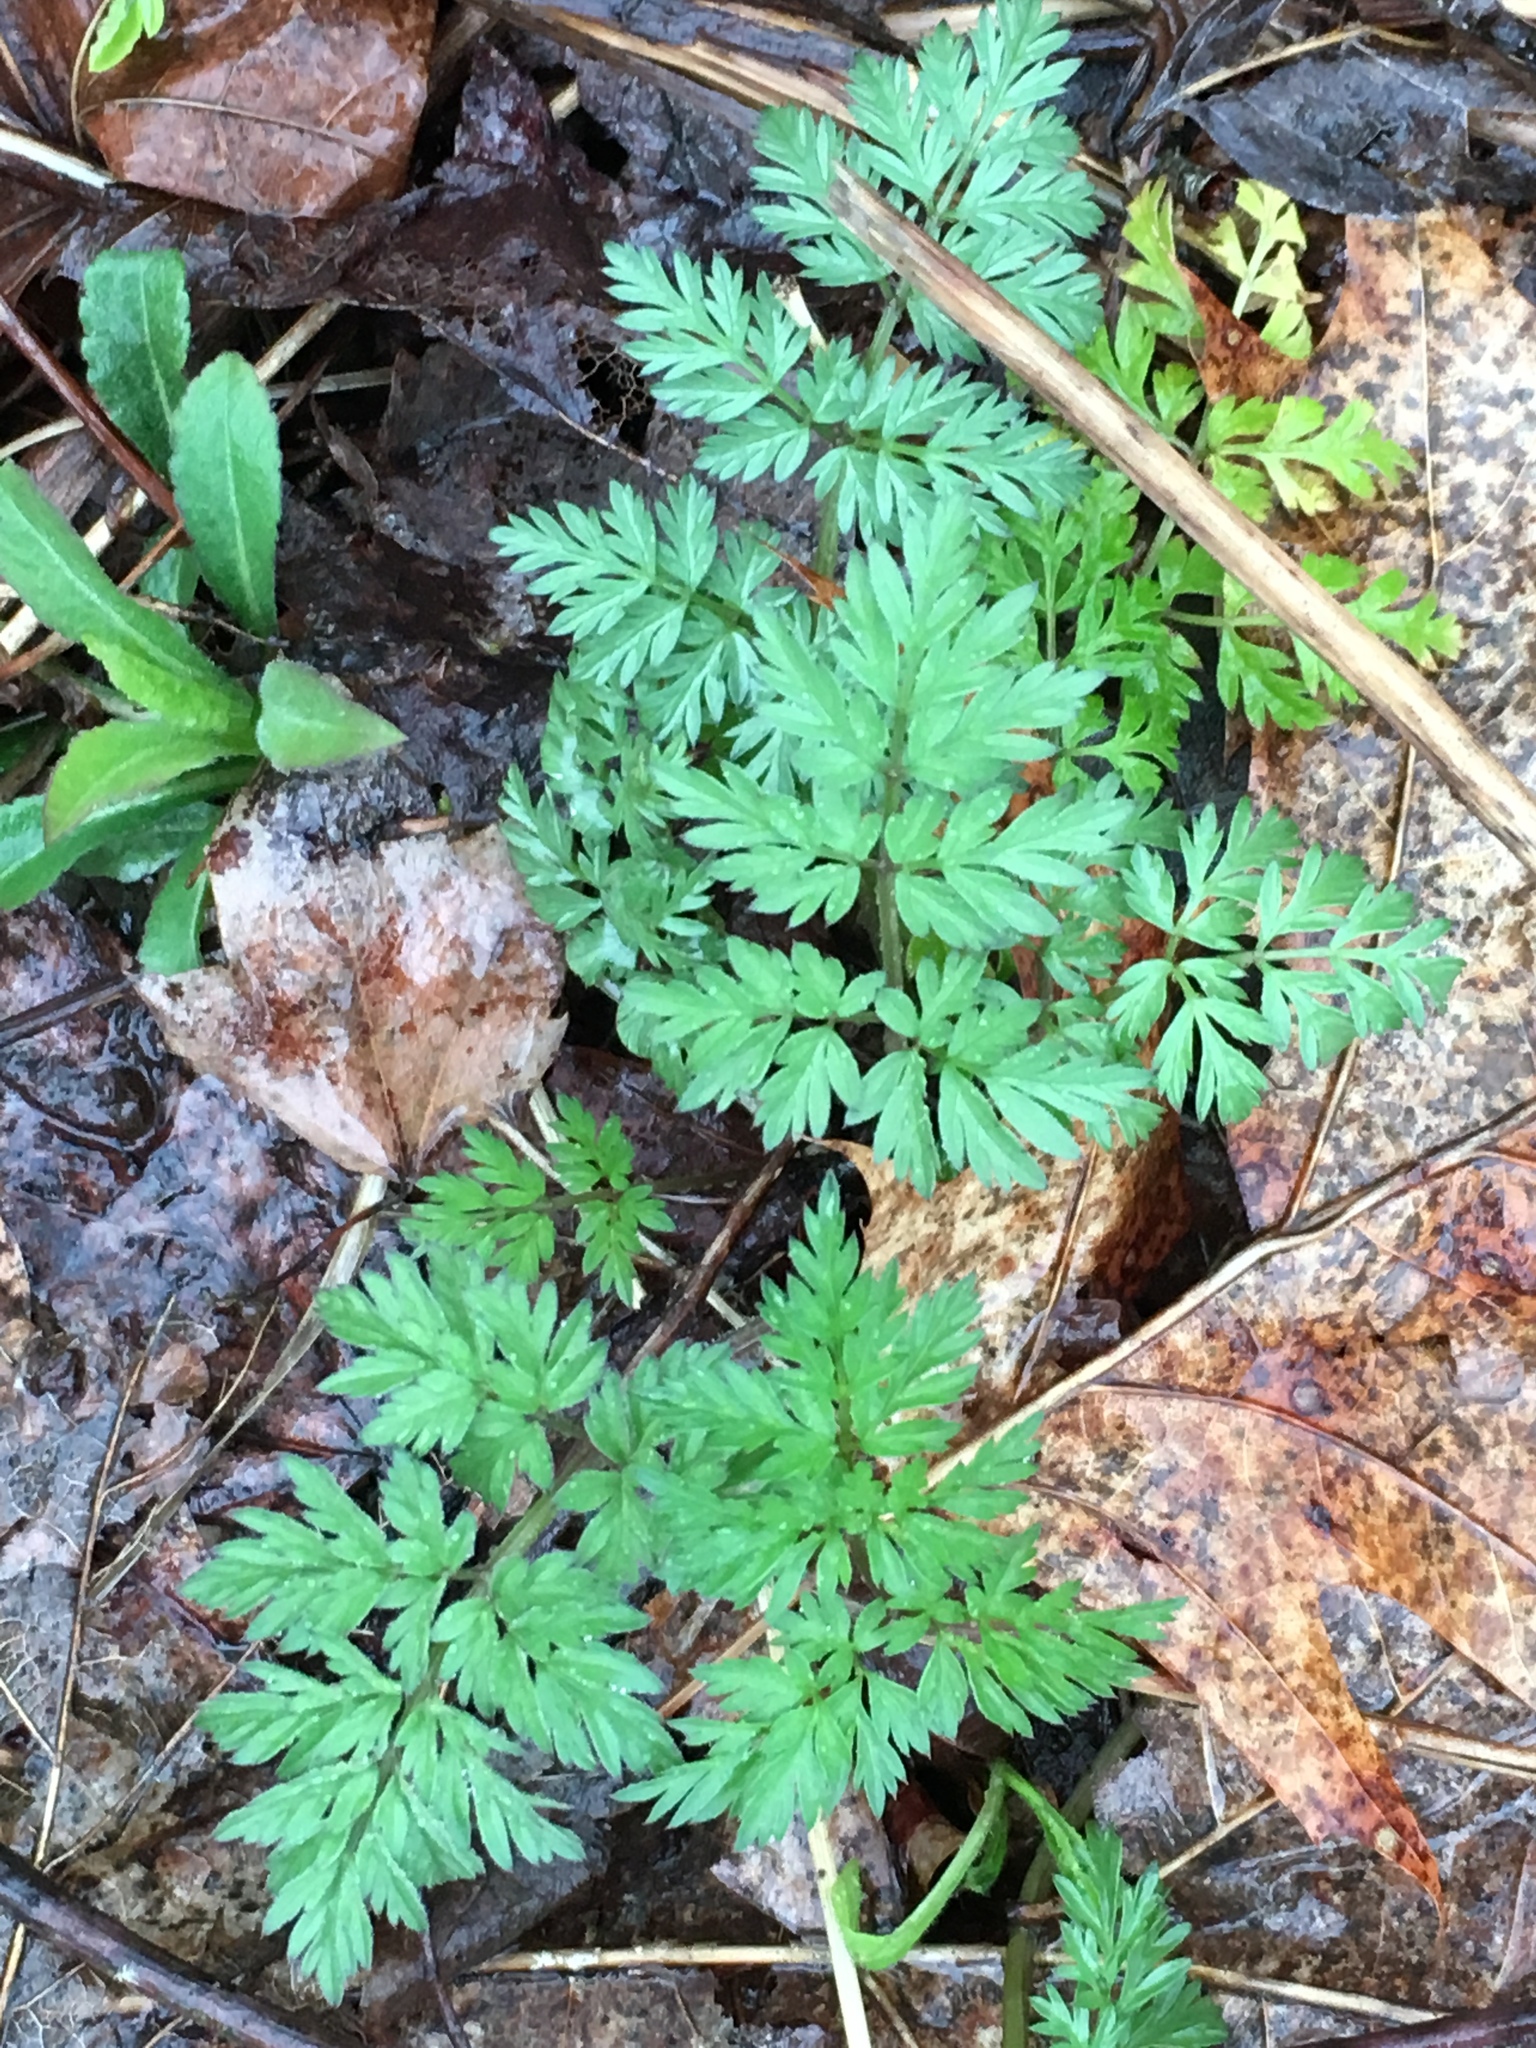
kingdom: Plantae
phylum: Tracheophyta
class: Magnoliopsida
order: Ranunculales
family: Papaveraceae
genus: Dicentra
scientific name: Dicentra cucullaria
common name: Dutchman's breeches
